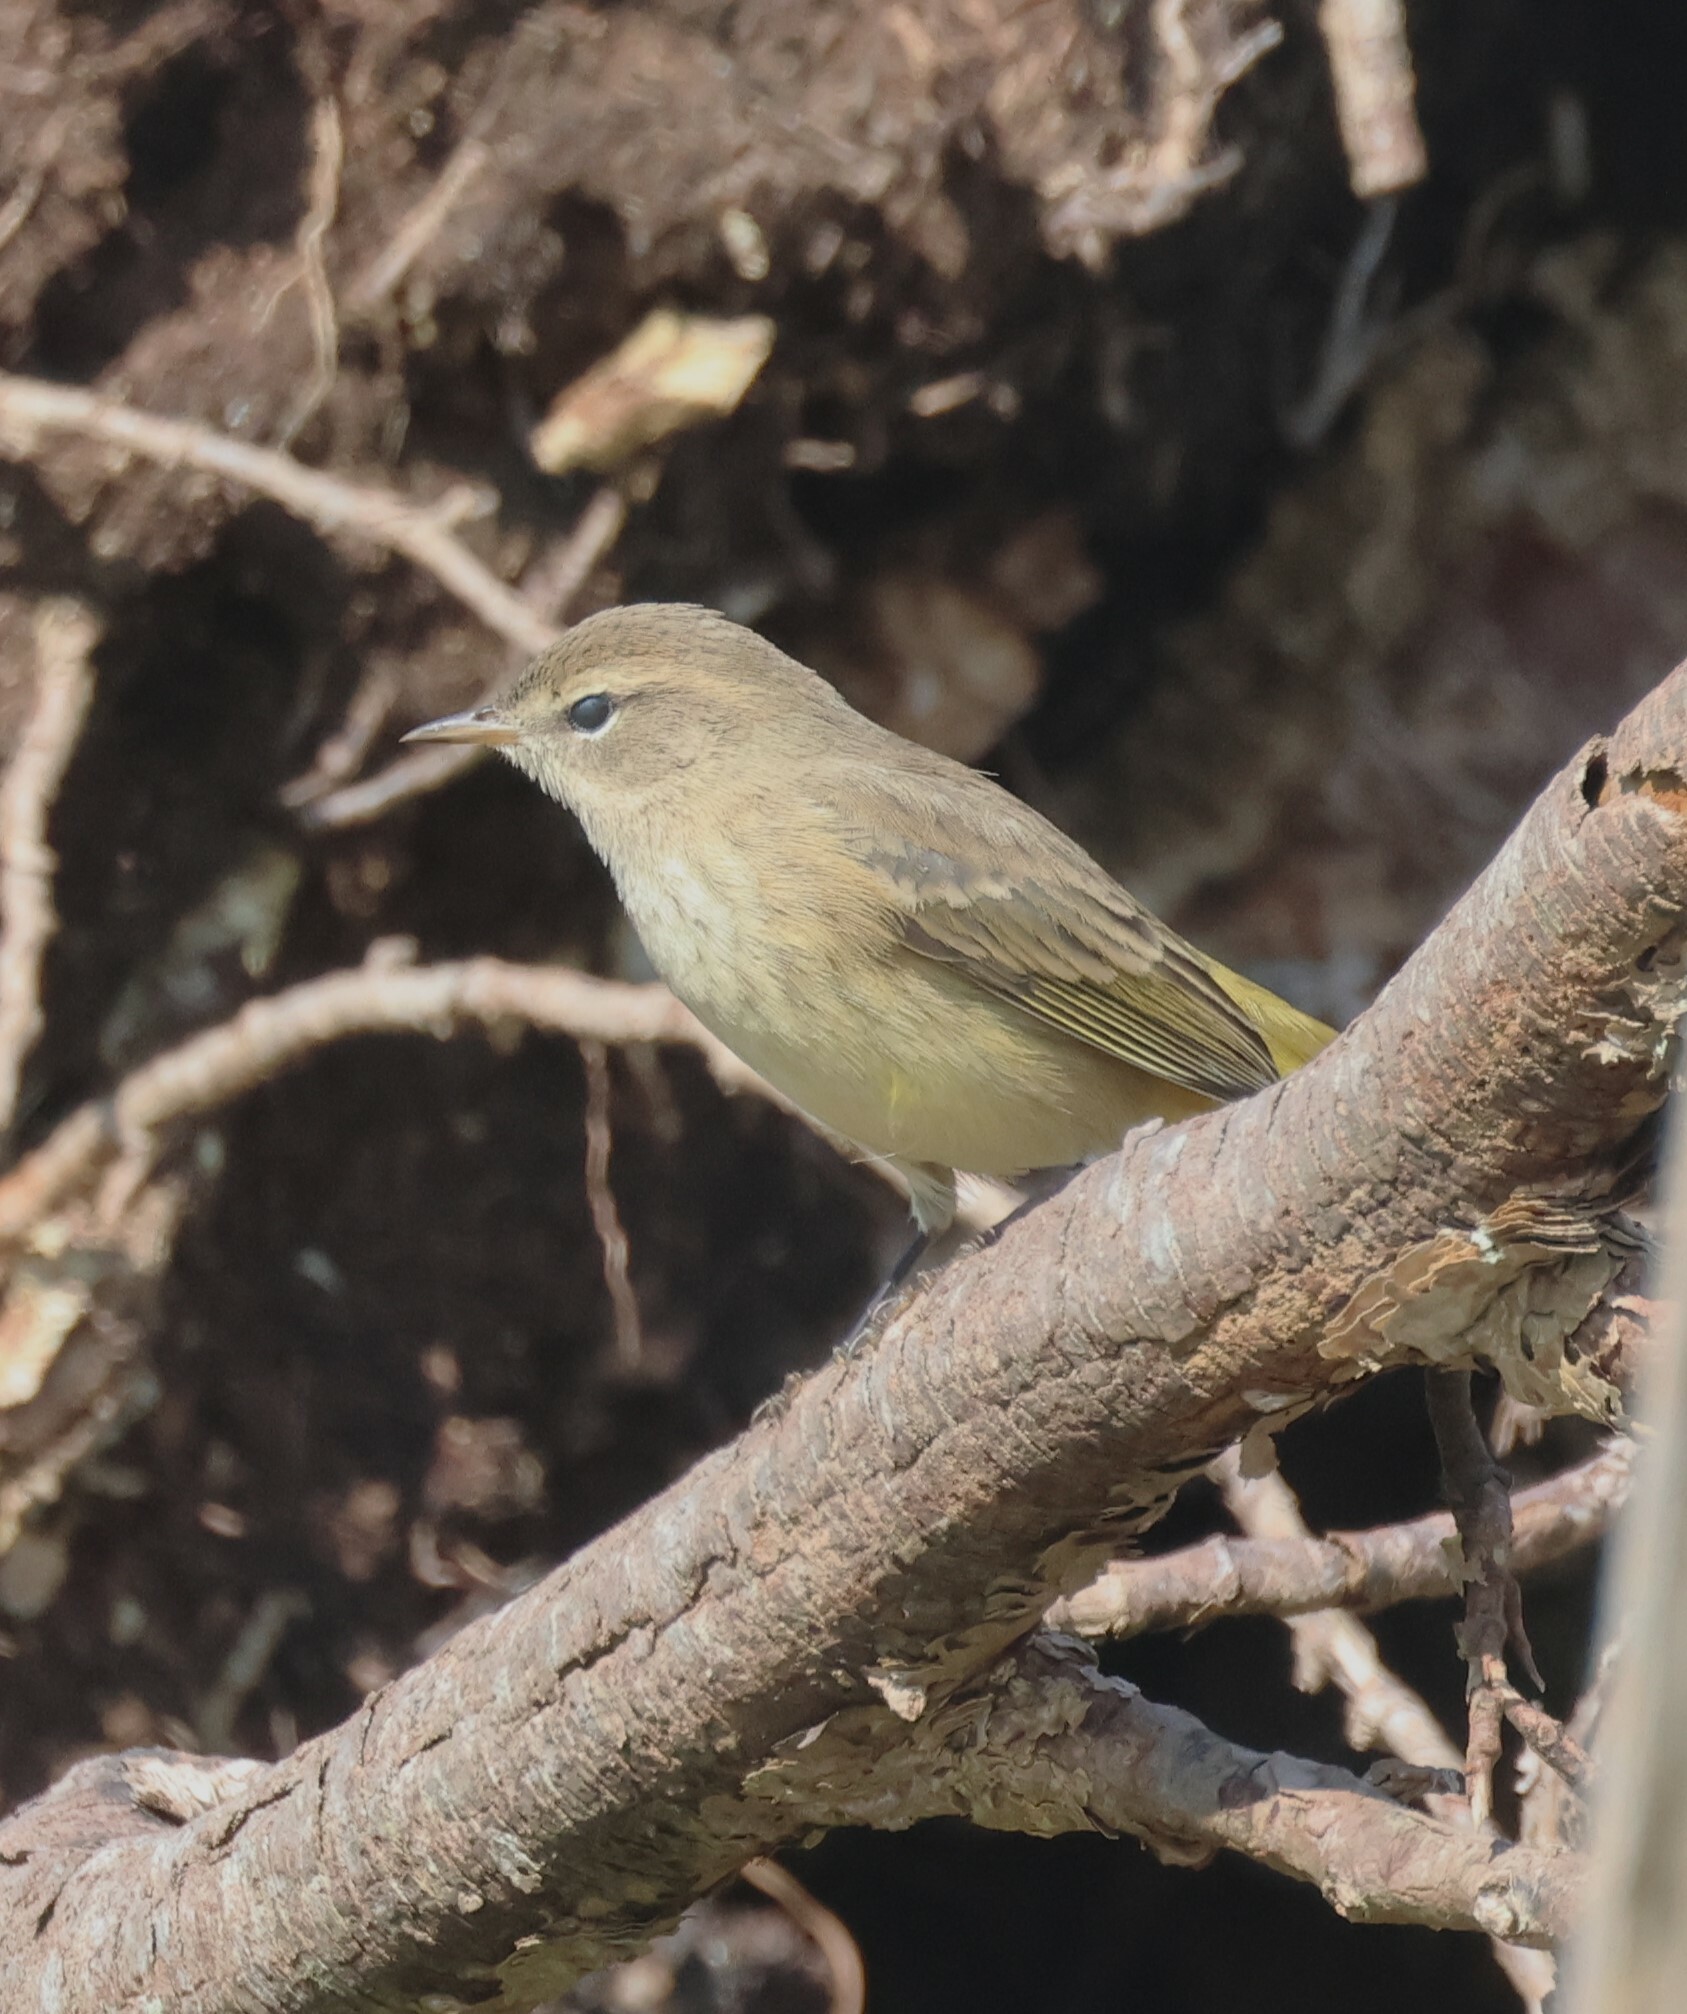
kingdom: Animalia
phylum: Chordata
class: Aves
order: Passeriformes
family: Parulidae
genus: Setophaga
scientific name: Setophaga palmarum
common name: Palm warbler
